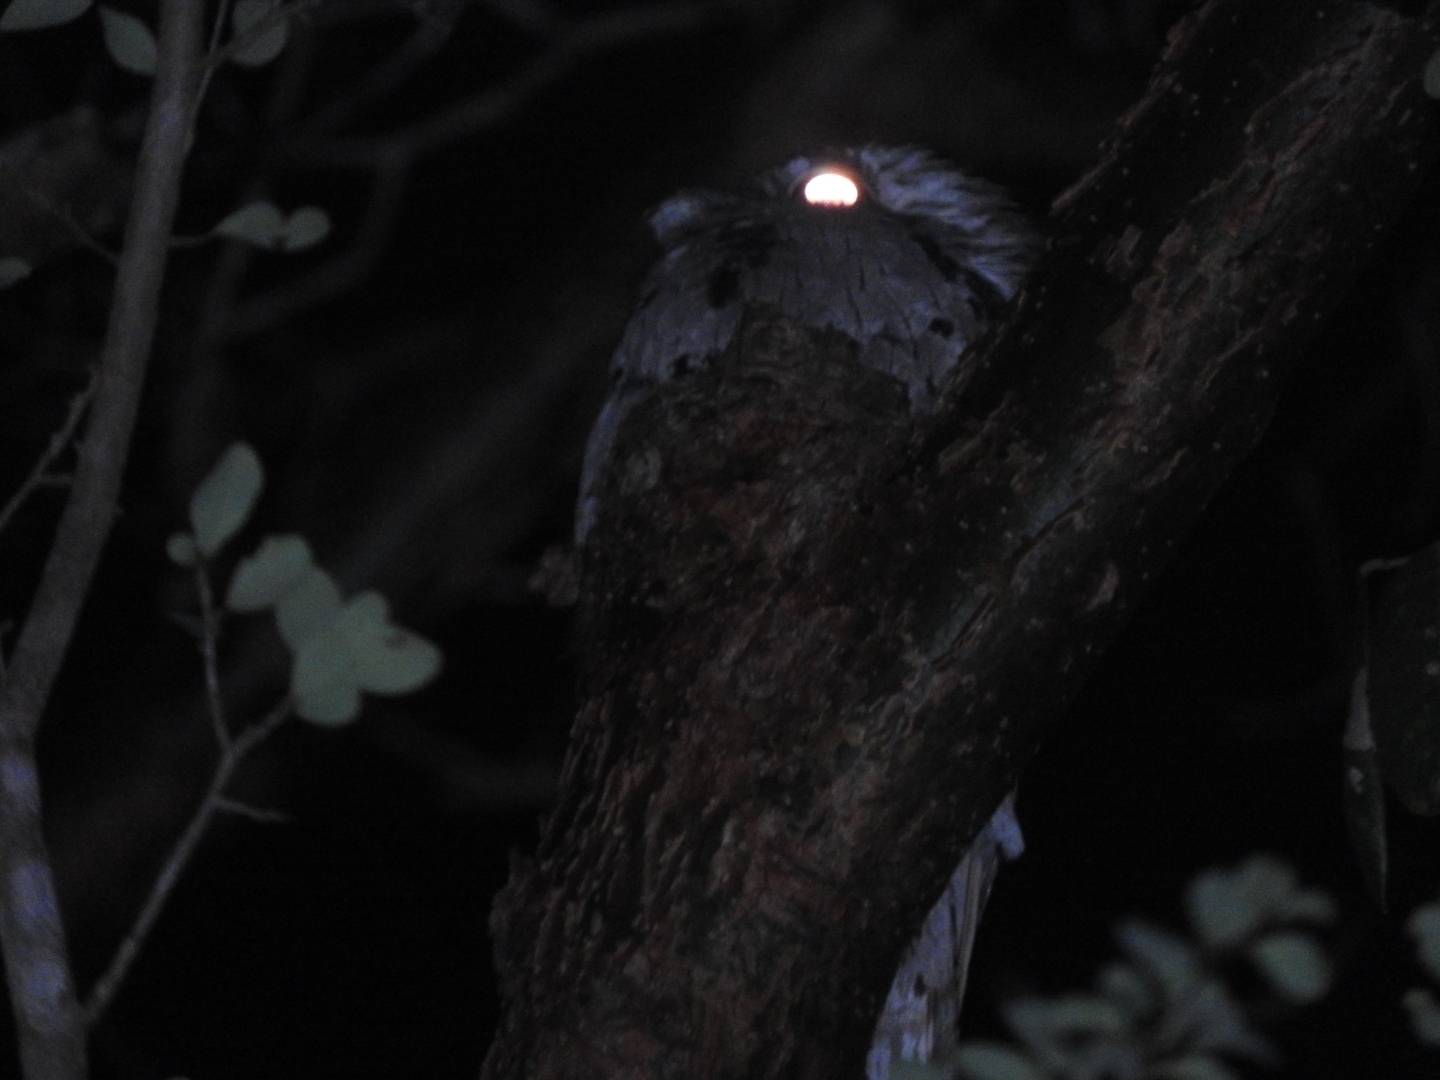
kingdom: Animalia
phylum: Chordata
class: Aves
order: Nyctibiiformes
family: Nyctibiidae
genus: Nyctibius
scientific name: Nyctibius jamaicensis
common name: Northern potoo
